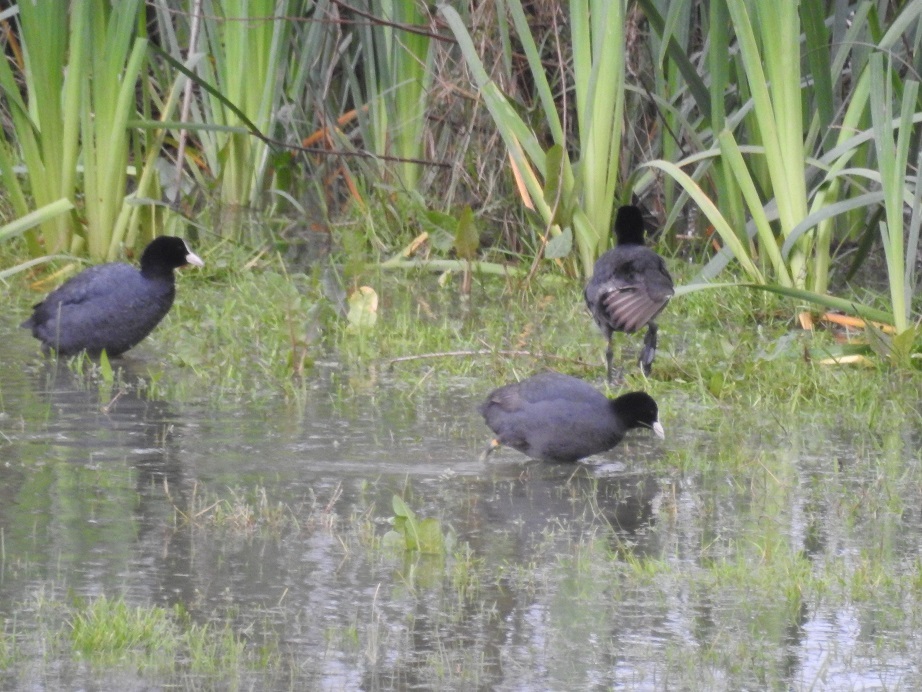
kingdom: Animalia
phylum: Chordata
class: Aves
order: Gruiformes
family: Rallidae
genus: Fulica
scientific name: Fulica atra
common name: Eurasian coot
